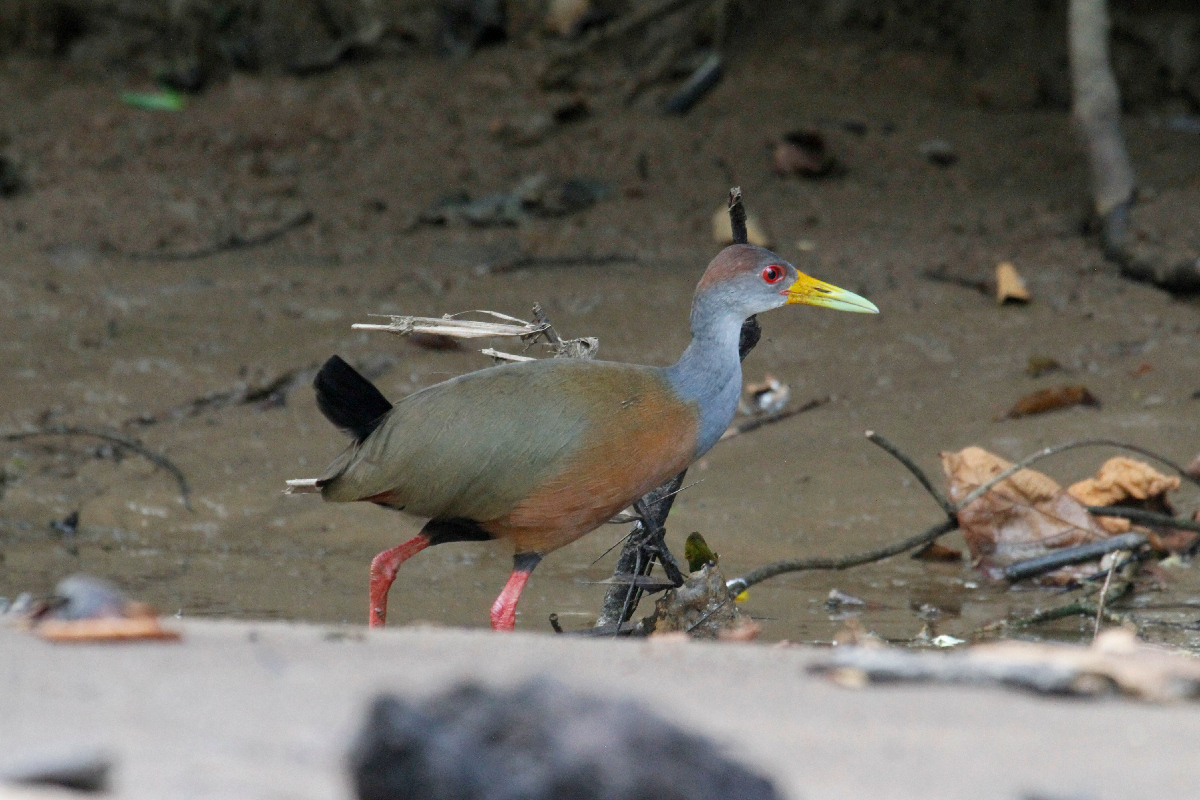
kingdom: Animalia
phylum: Chordata
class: Aves
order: Gruiformes
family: Rallidae
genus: Aramides
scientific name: Aramides albiventris
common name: Russet-naped wood-rail
